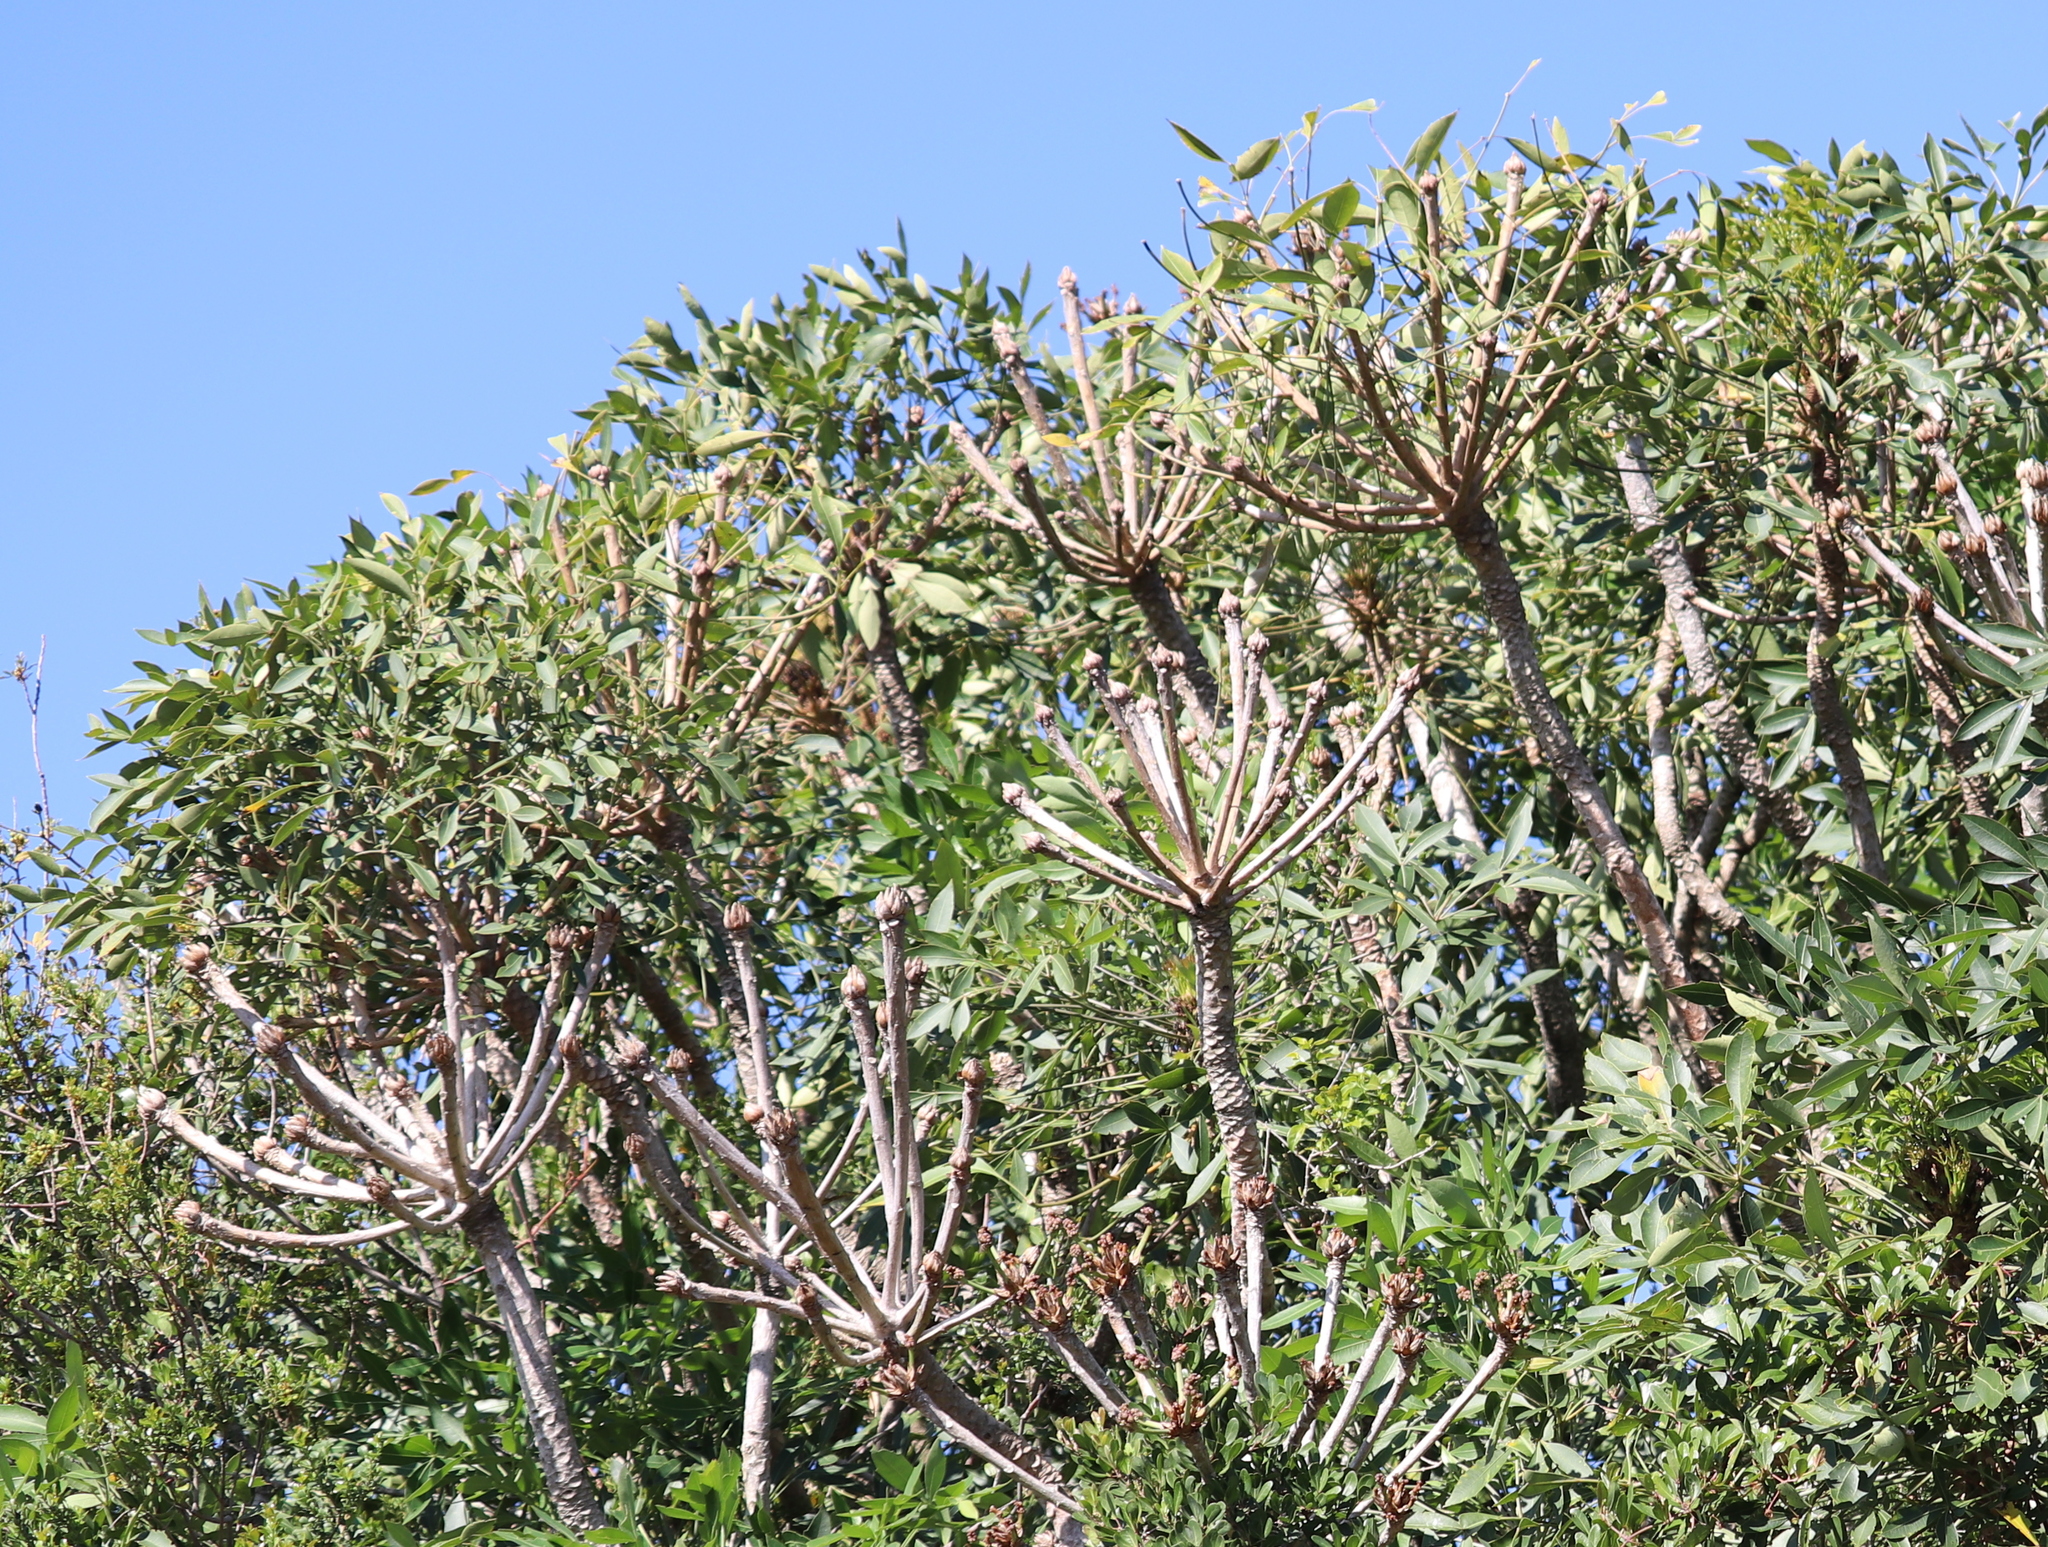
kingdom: Plantae
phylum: Tracheophyta
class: Magnoliopsida
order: Apiales
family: Araliaceae
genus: Cussonia
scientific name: Cussonia spicata
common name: Common cabbagetree
